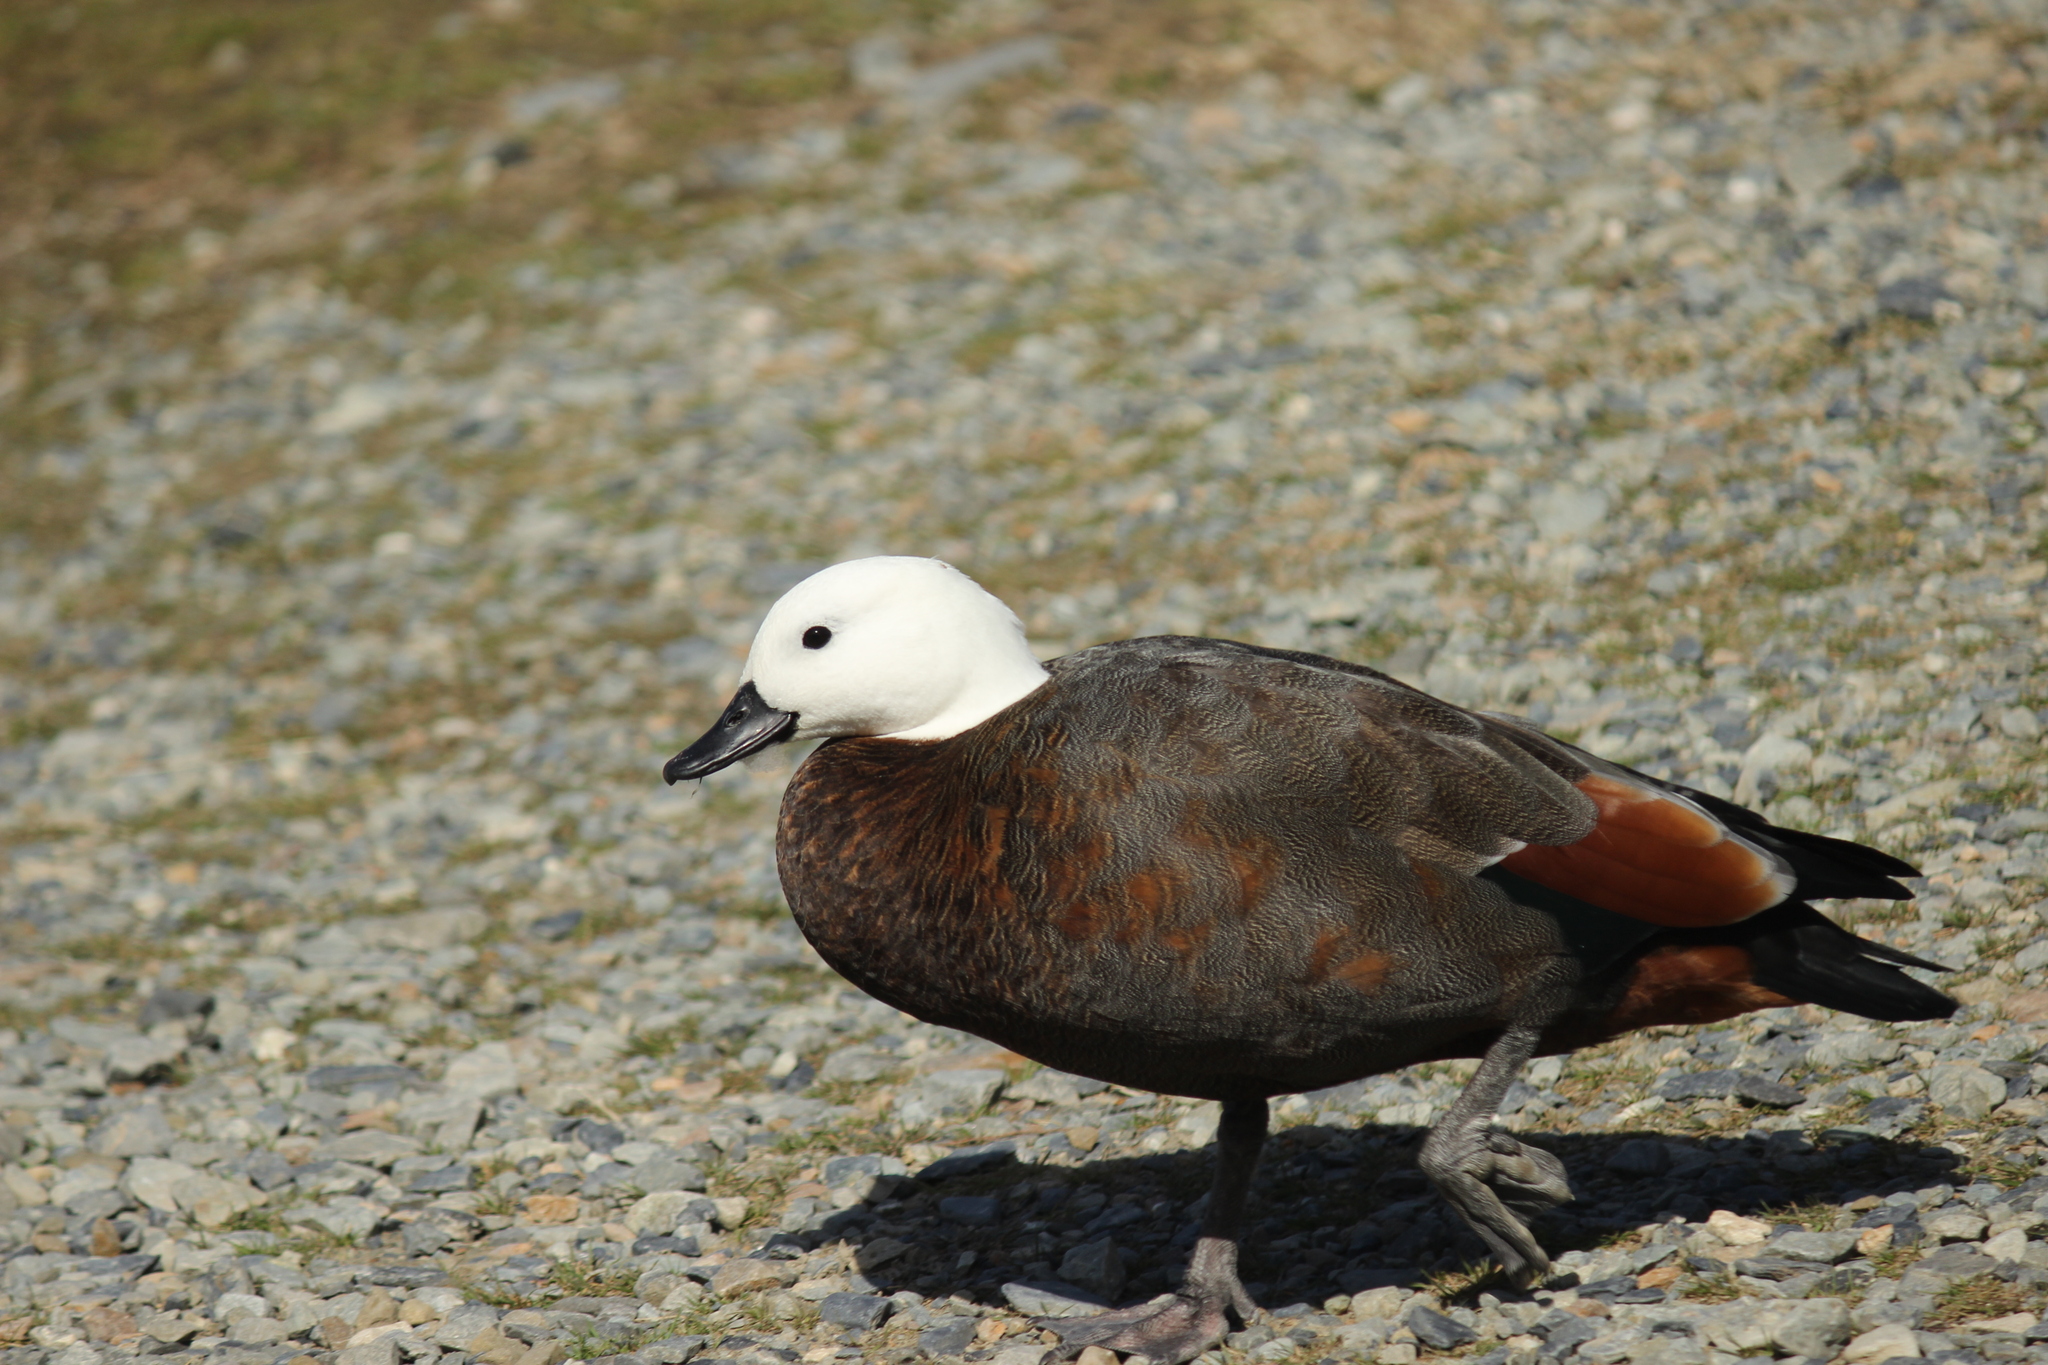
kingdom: Animalia
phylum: Chordata
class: Aves
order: Anseriformes
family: Anatidae
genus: Tadorna
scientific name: Tadorna variegata
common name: Paradise shelduck
